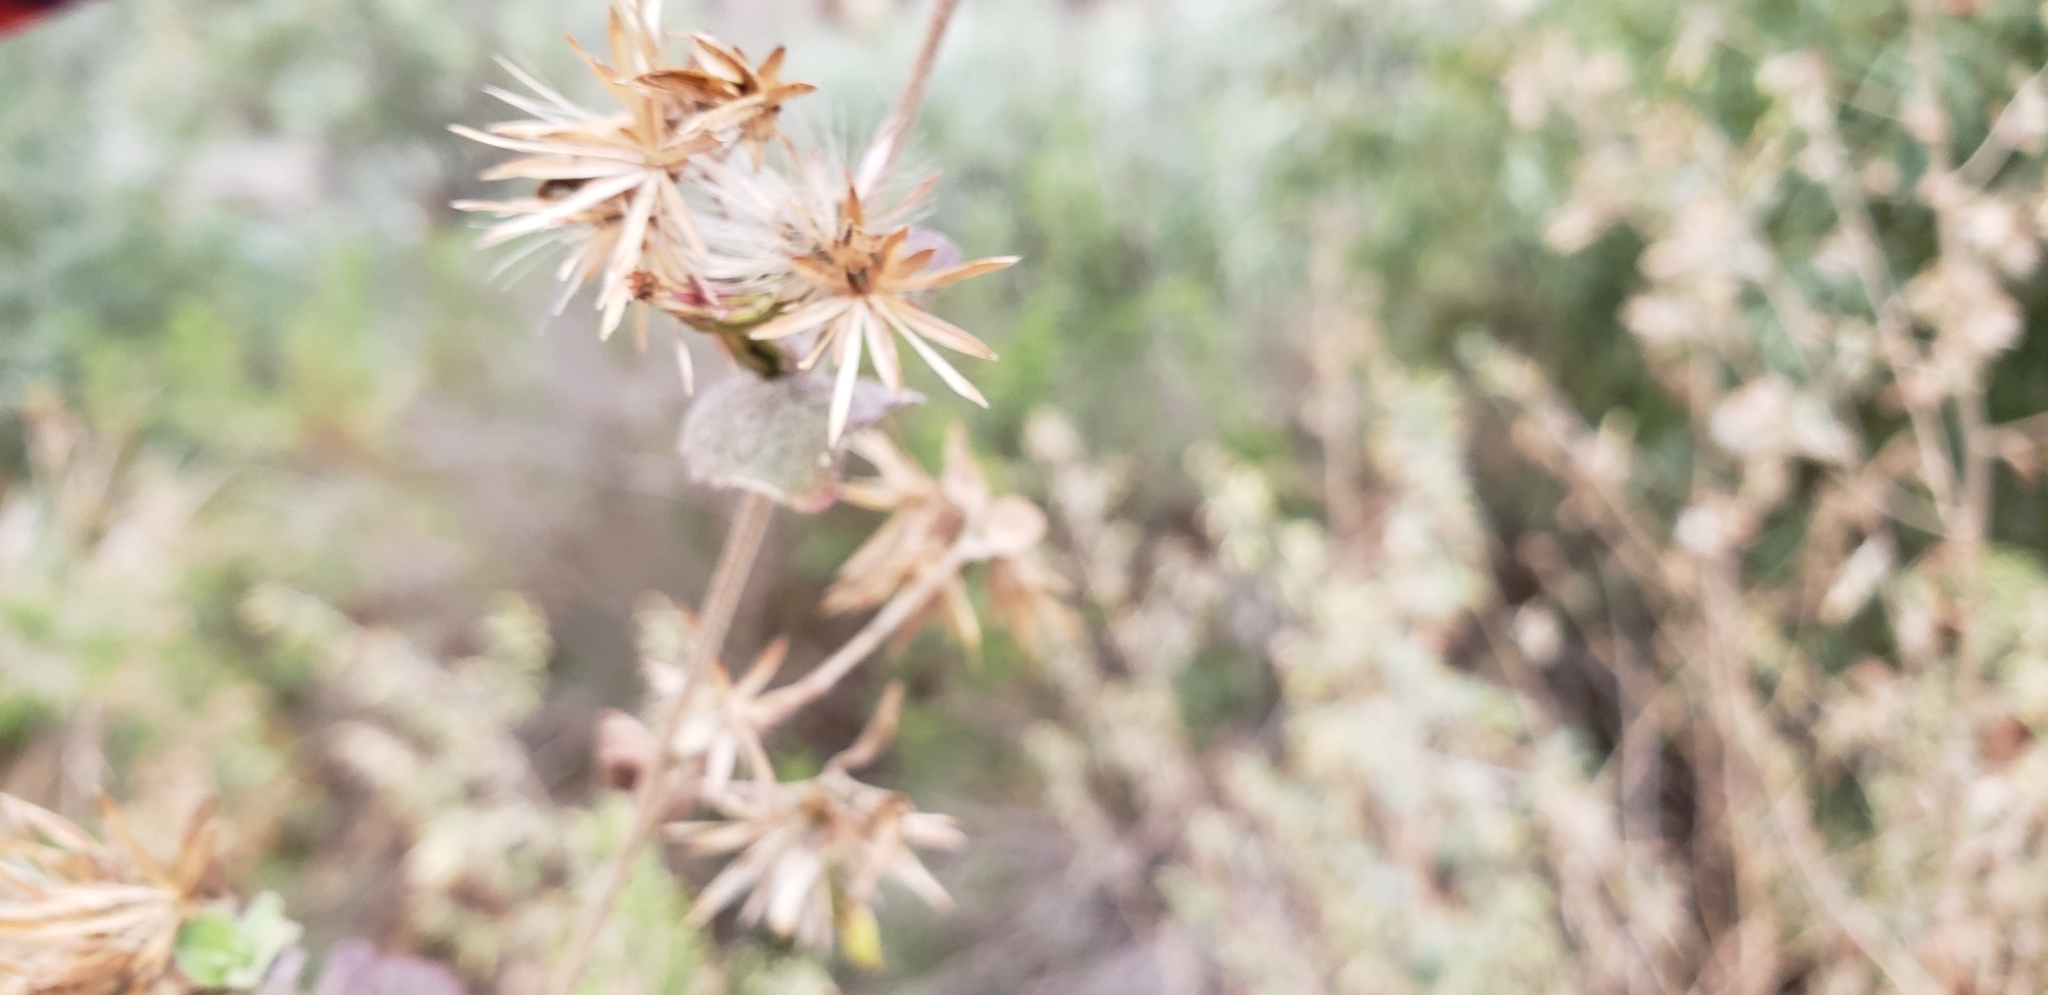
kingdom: Plantae
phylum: Tracheophyta
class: Magnoliopsida
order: Asterales
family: Asteraceae
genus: Brickellia
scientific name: Brickellia californica
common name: California brickellbush
